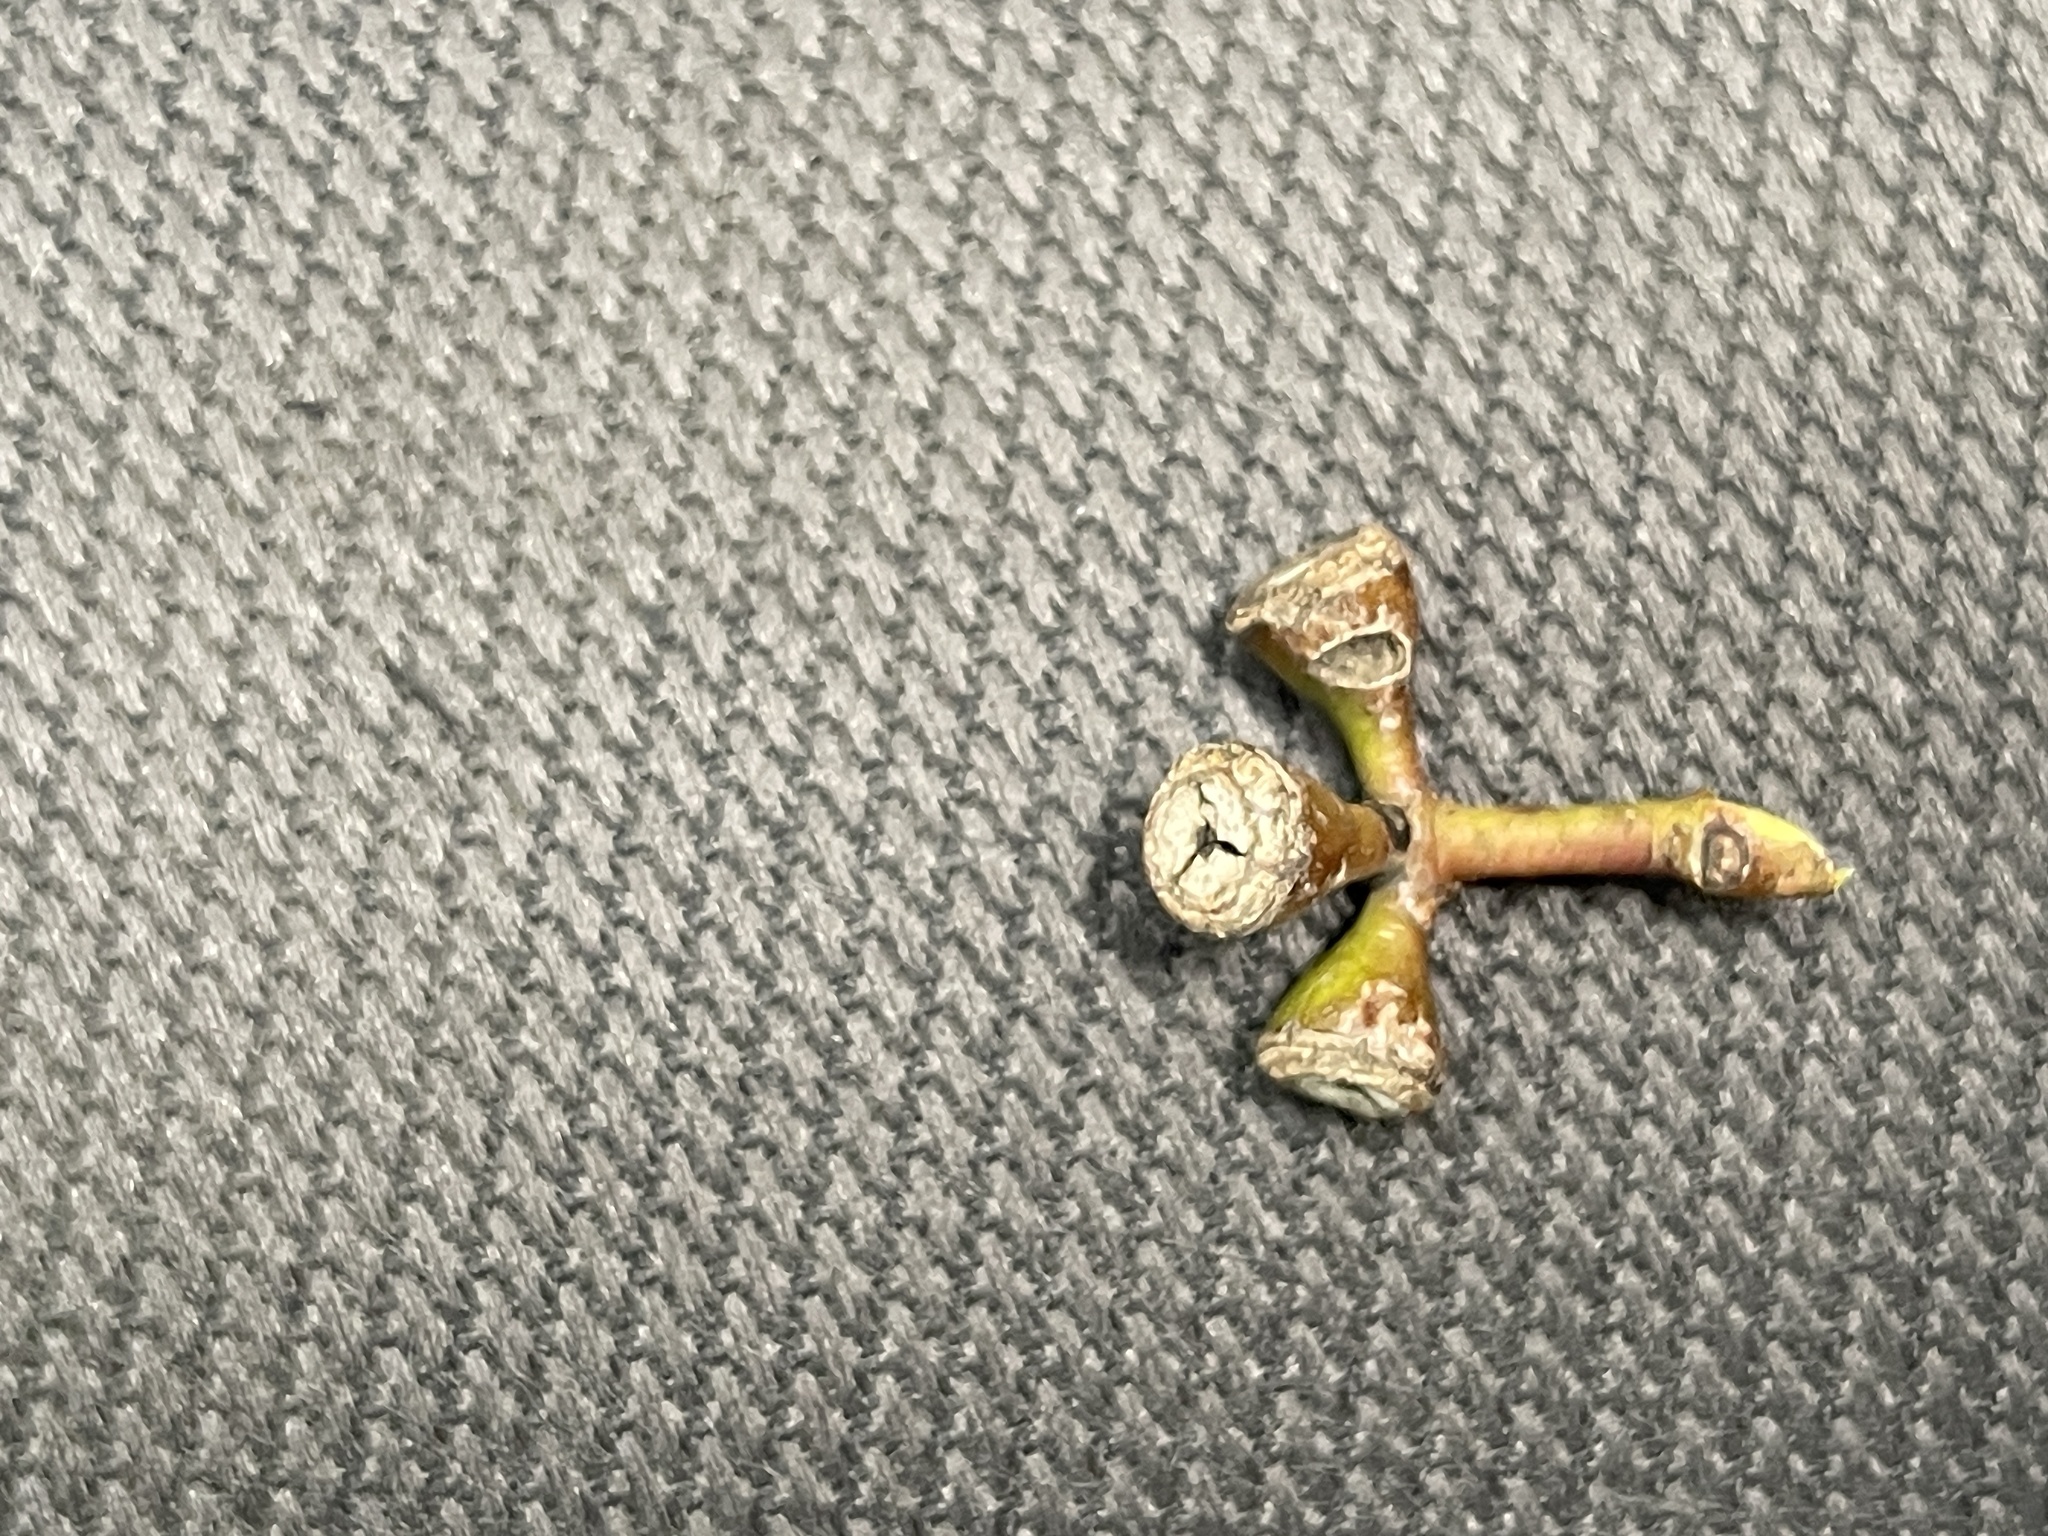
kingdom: Plantae
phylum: Tracheophyta
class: Magnoliopsida
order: Myrtales
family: Myrtaceae
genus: Eucalyptus
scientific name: Eucalyptus ovata
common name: Black-gum
